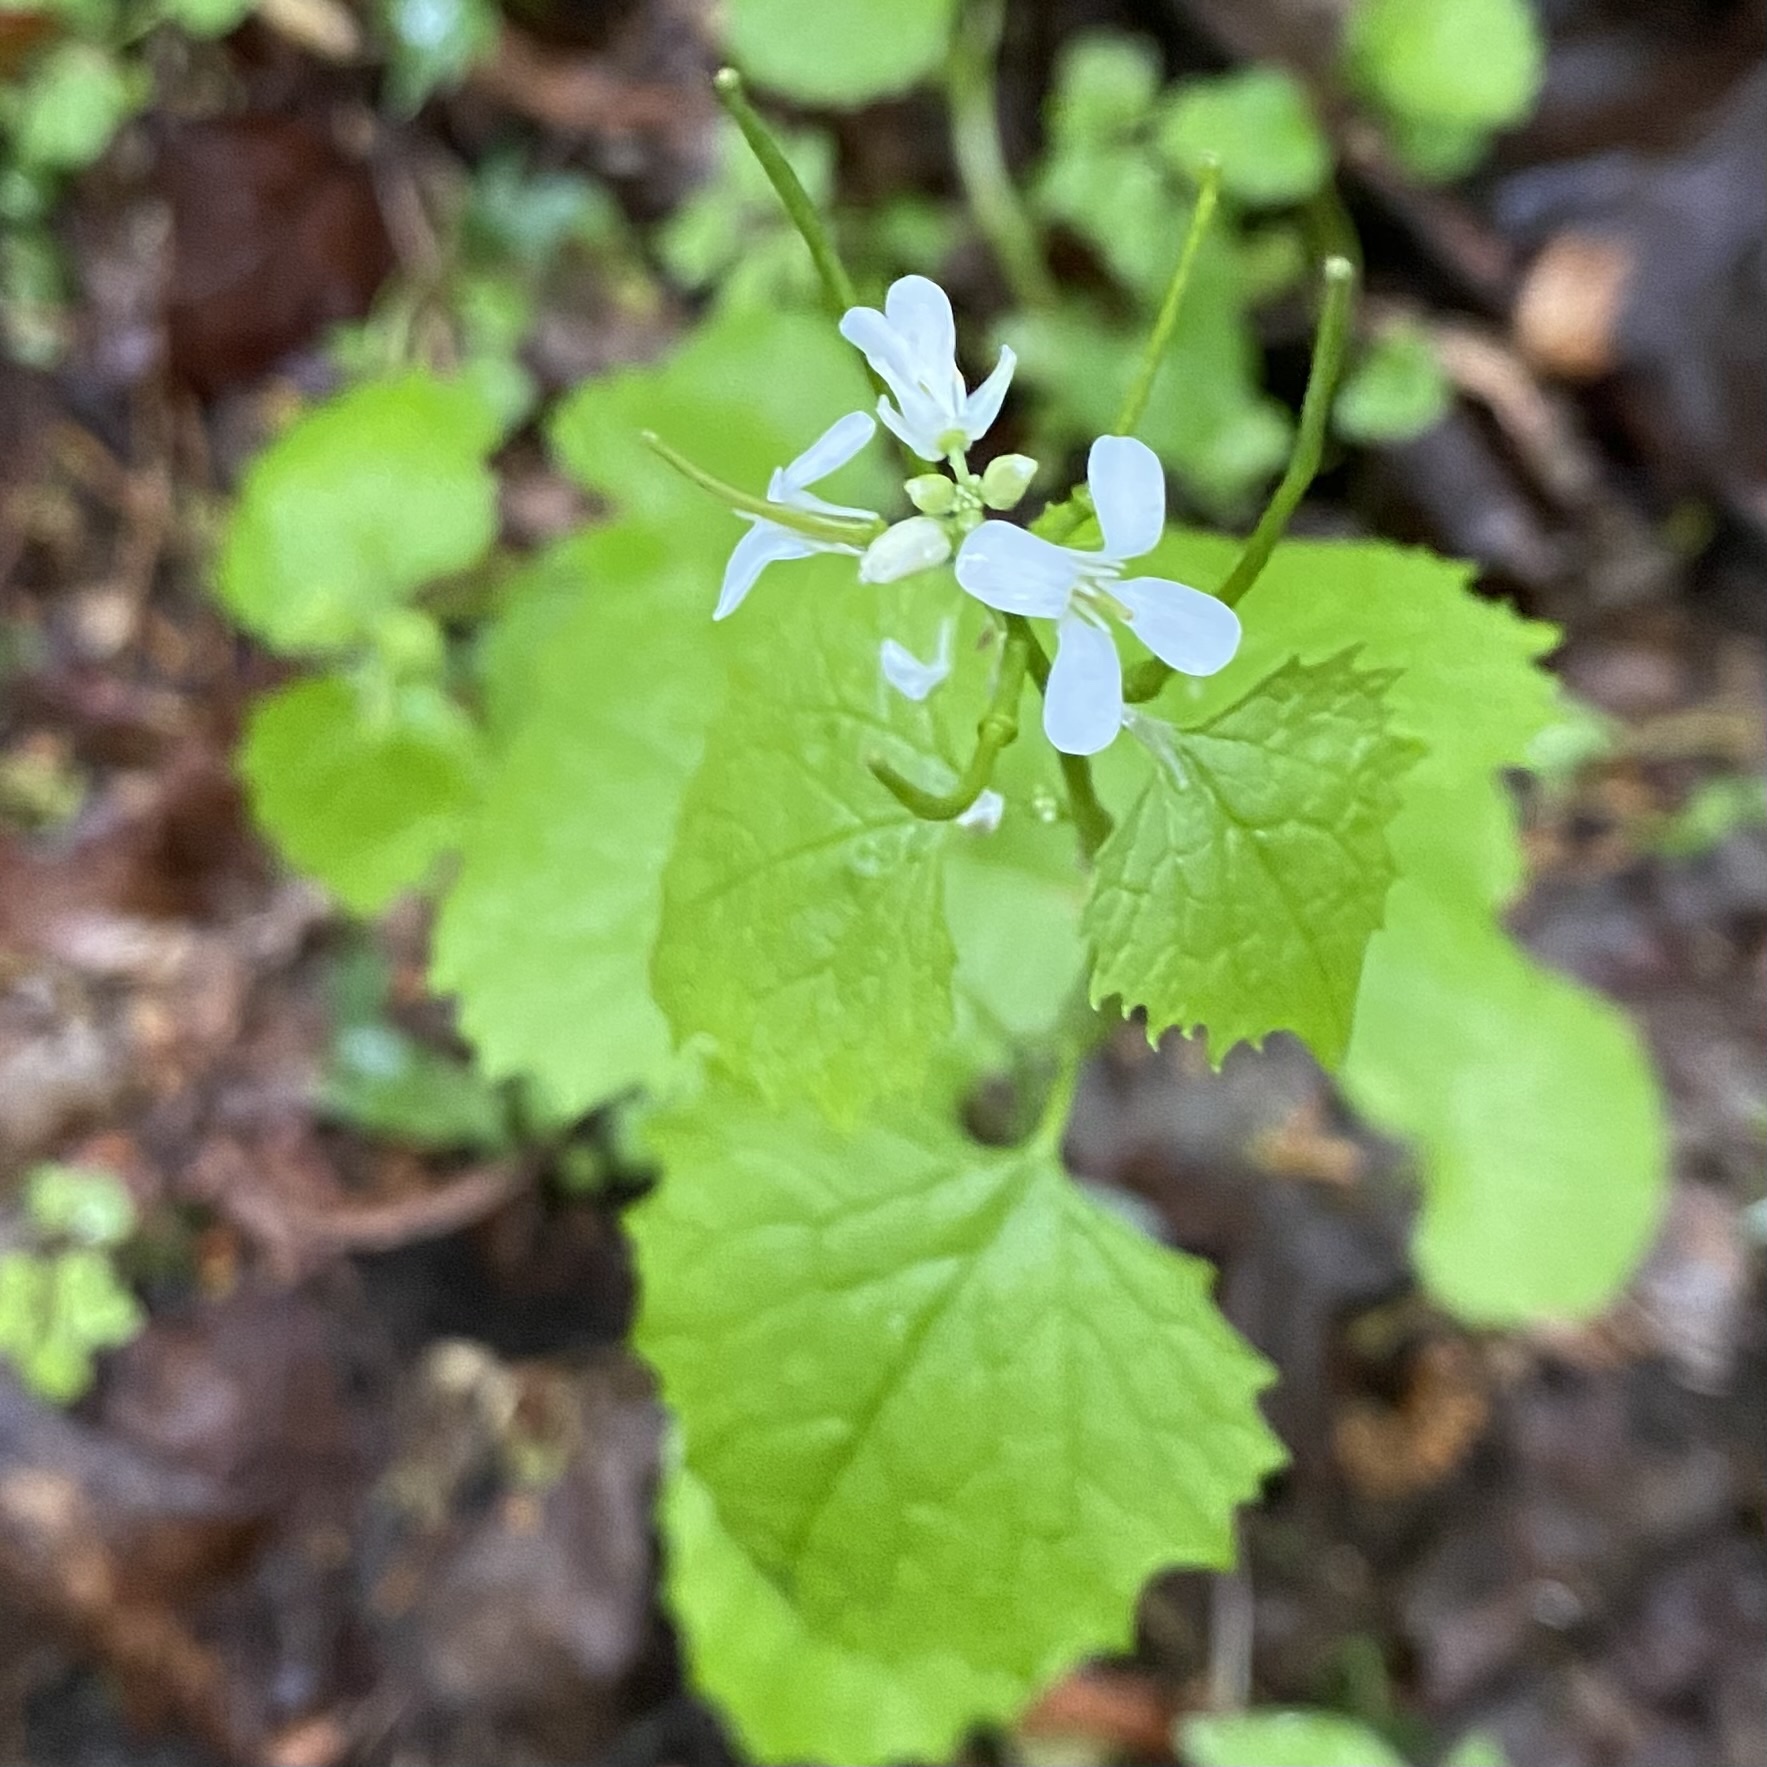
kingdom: Plantae
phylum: Tracheophyta
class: Magnoliopsida
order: Brassicales
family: Brassicaceae
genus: Alliaria
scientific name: Alliaria petiolata
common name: Garlic mustard
